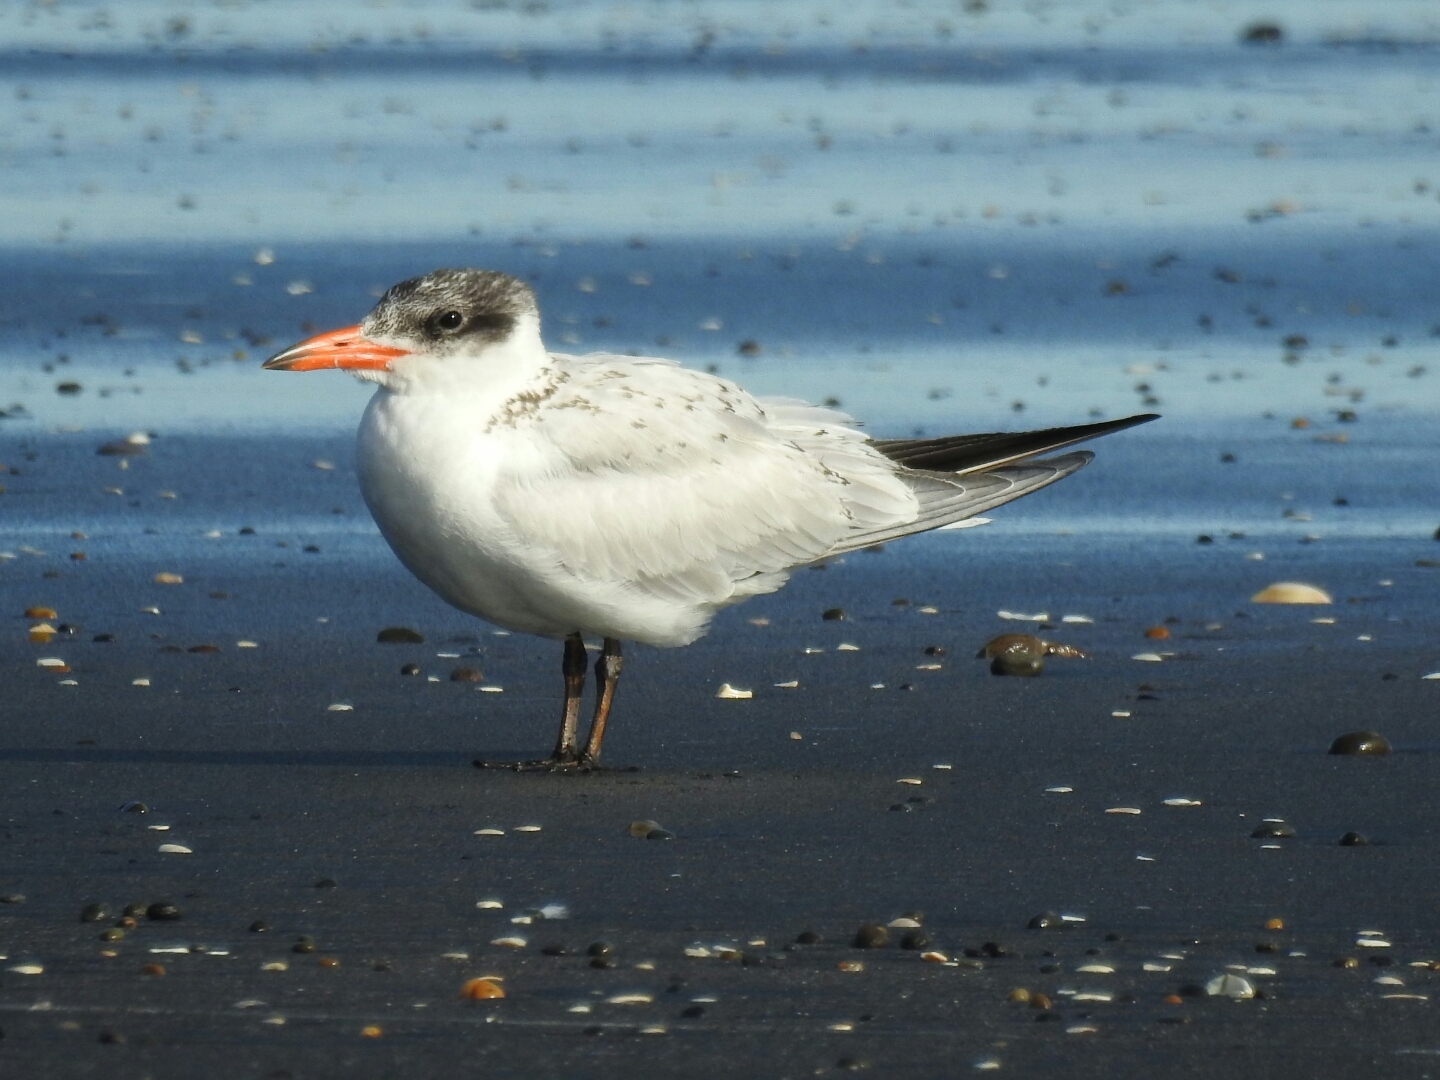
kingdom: Animalia
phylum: Chordata
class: Aves
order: Charadriiformes
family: Laridae
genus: Hydroprogne
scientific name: Hydroprogne caspia
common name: Caspian tern
